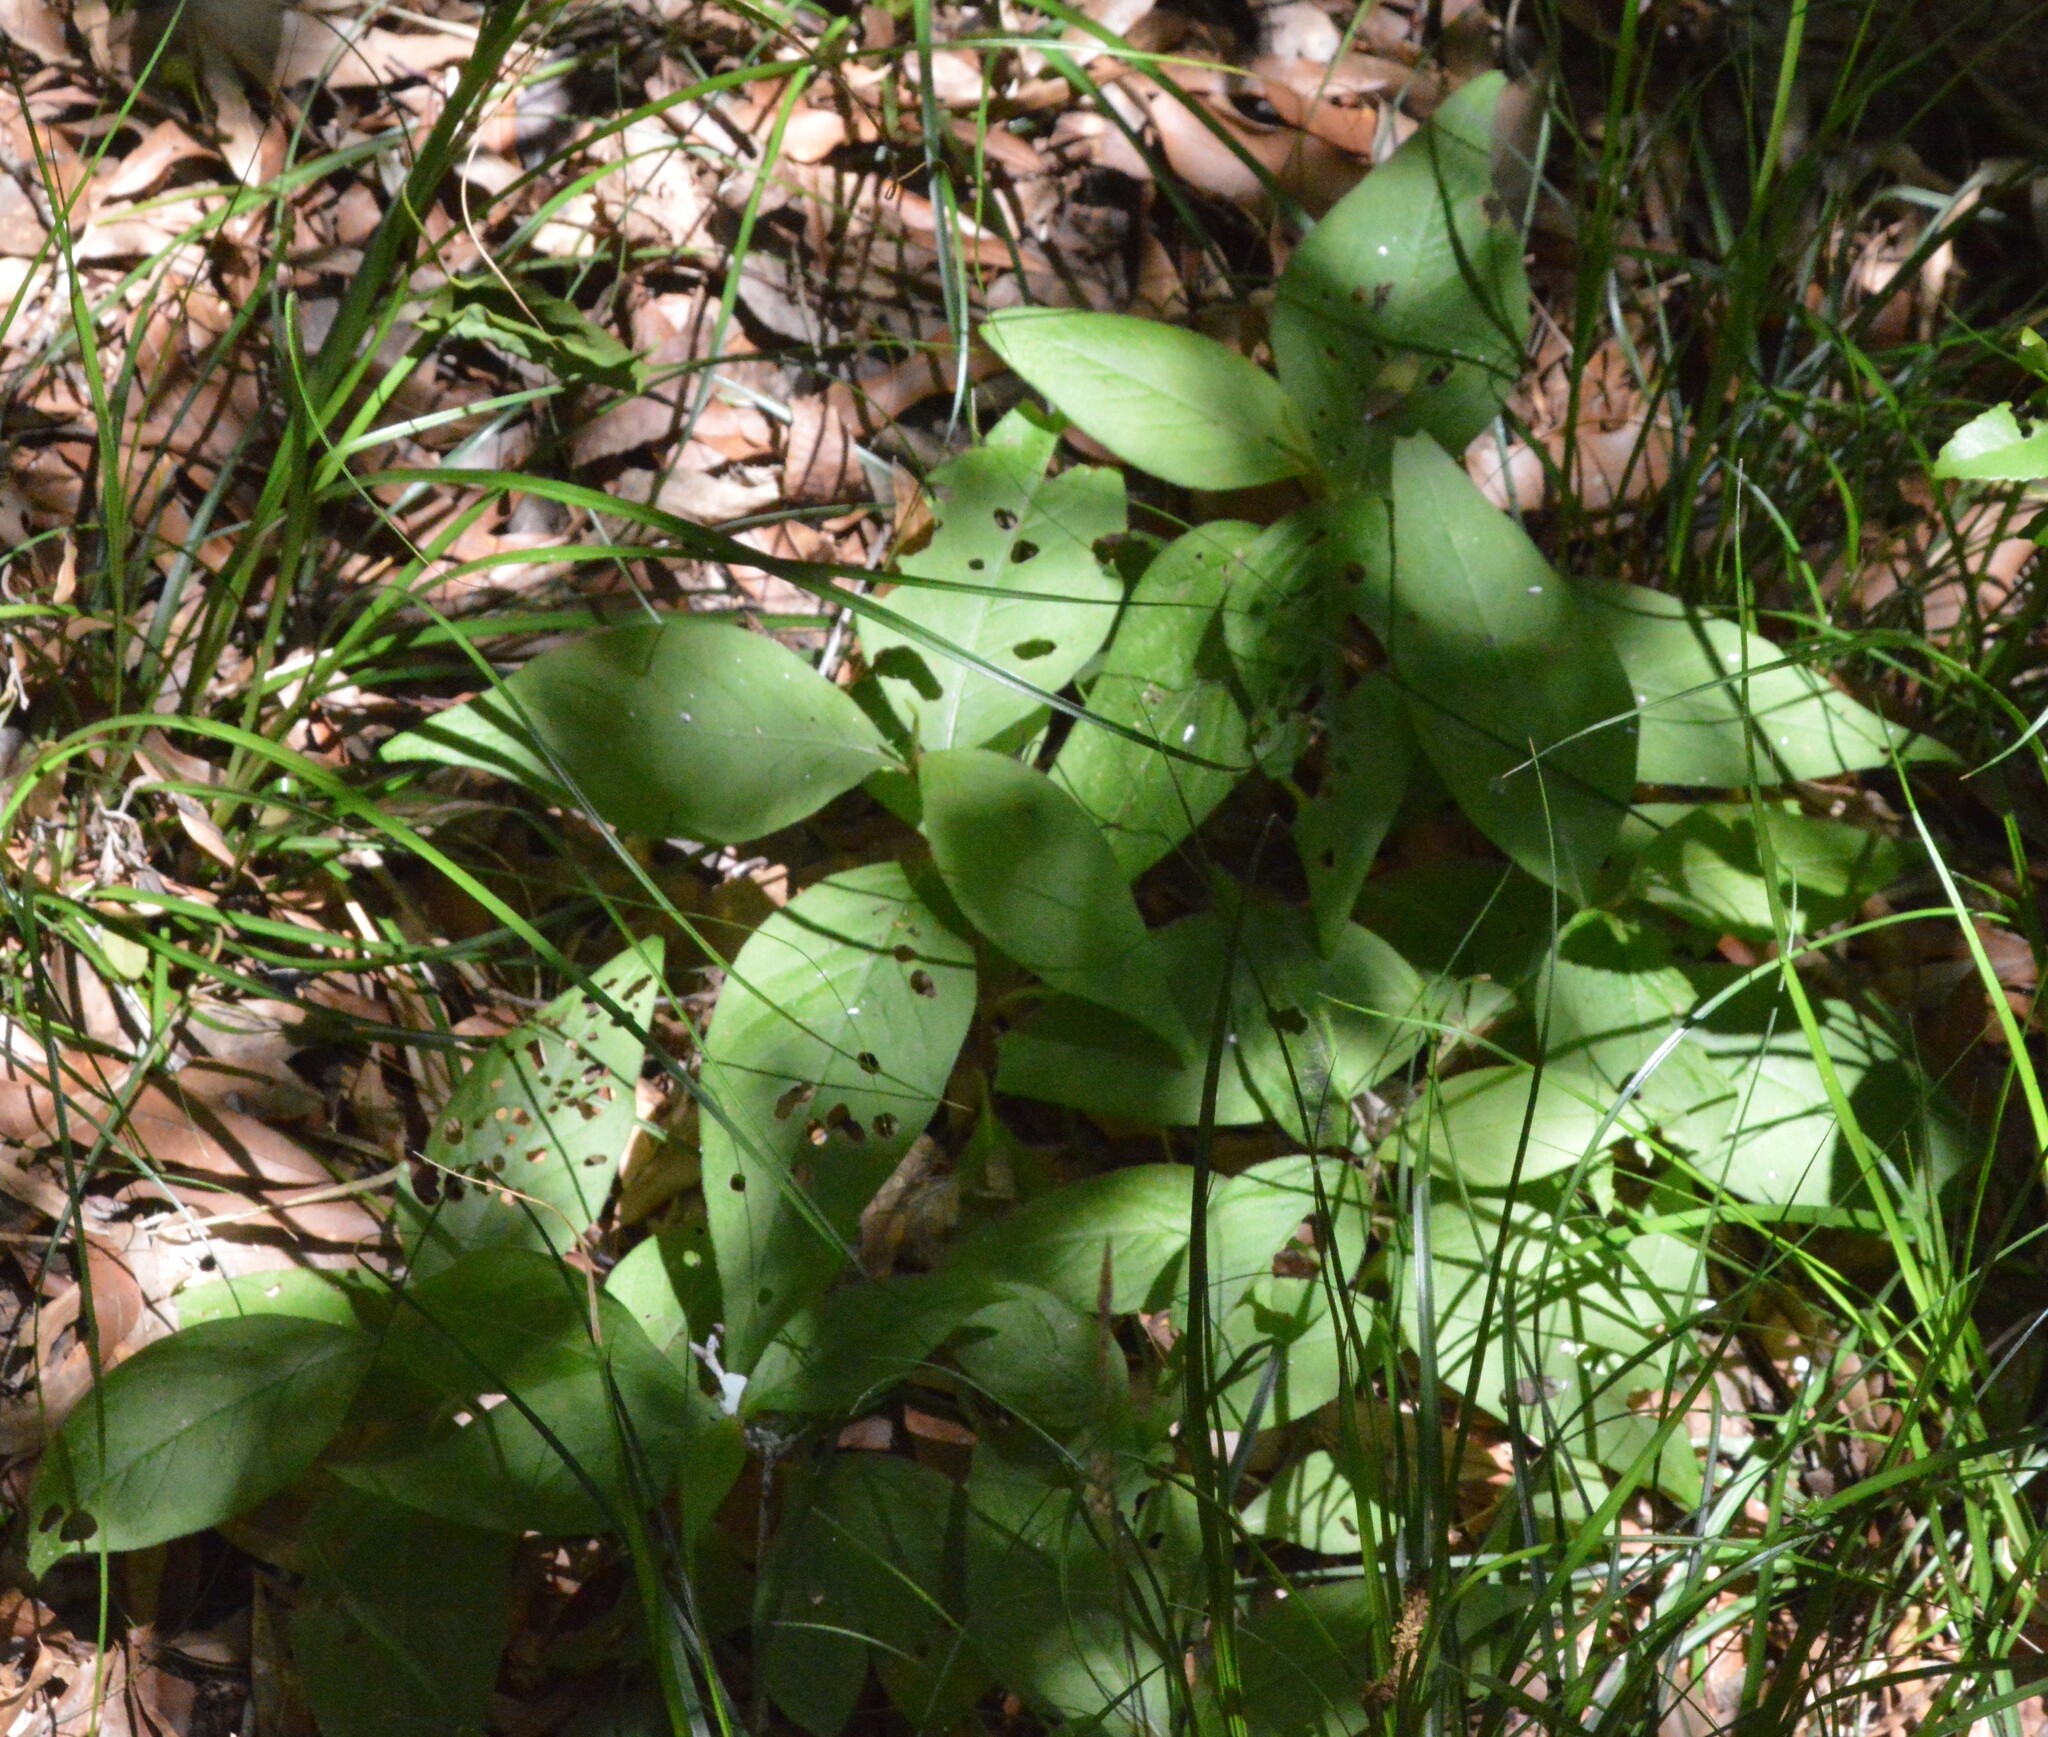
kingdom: Plantae
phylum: Tracheophyta
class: Magnoliopsida
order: Caryophyllales
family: Polygonaceae
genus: Persicaria
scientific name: Persicaria virginiana
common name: Jumpseed
